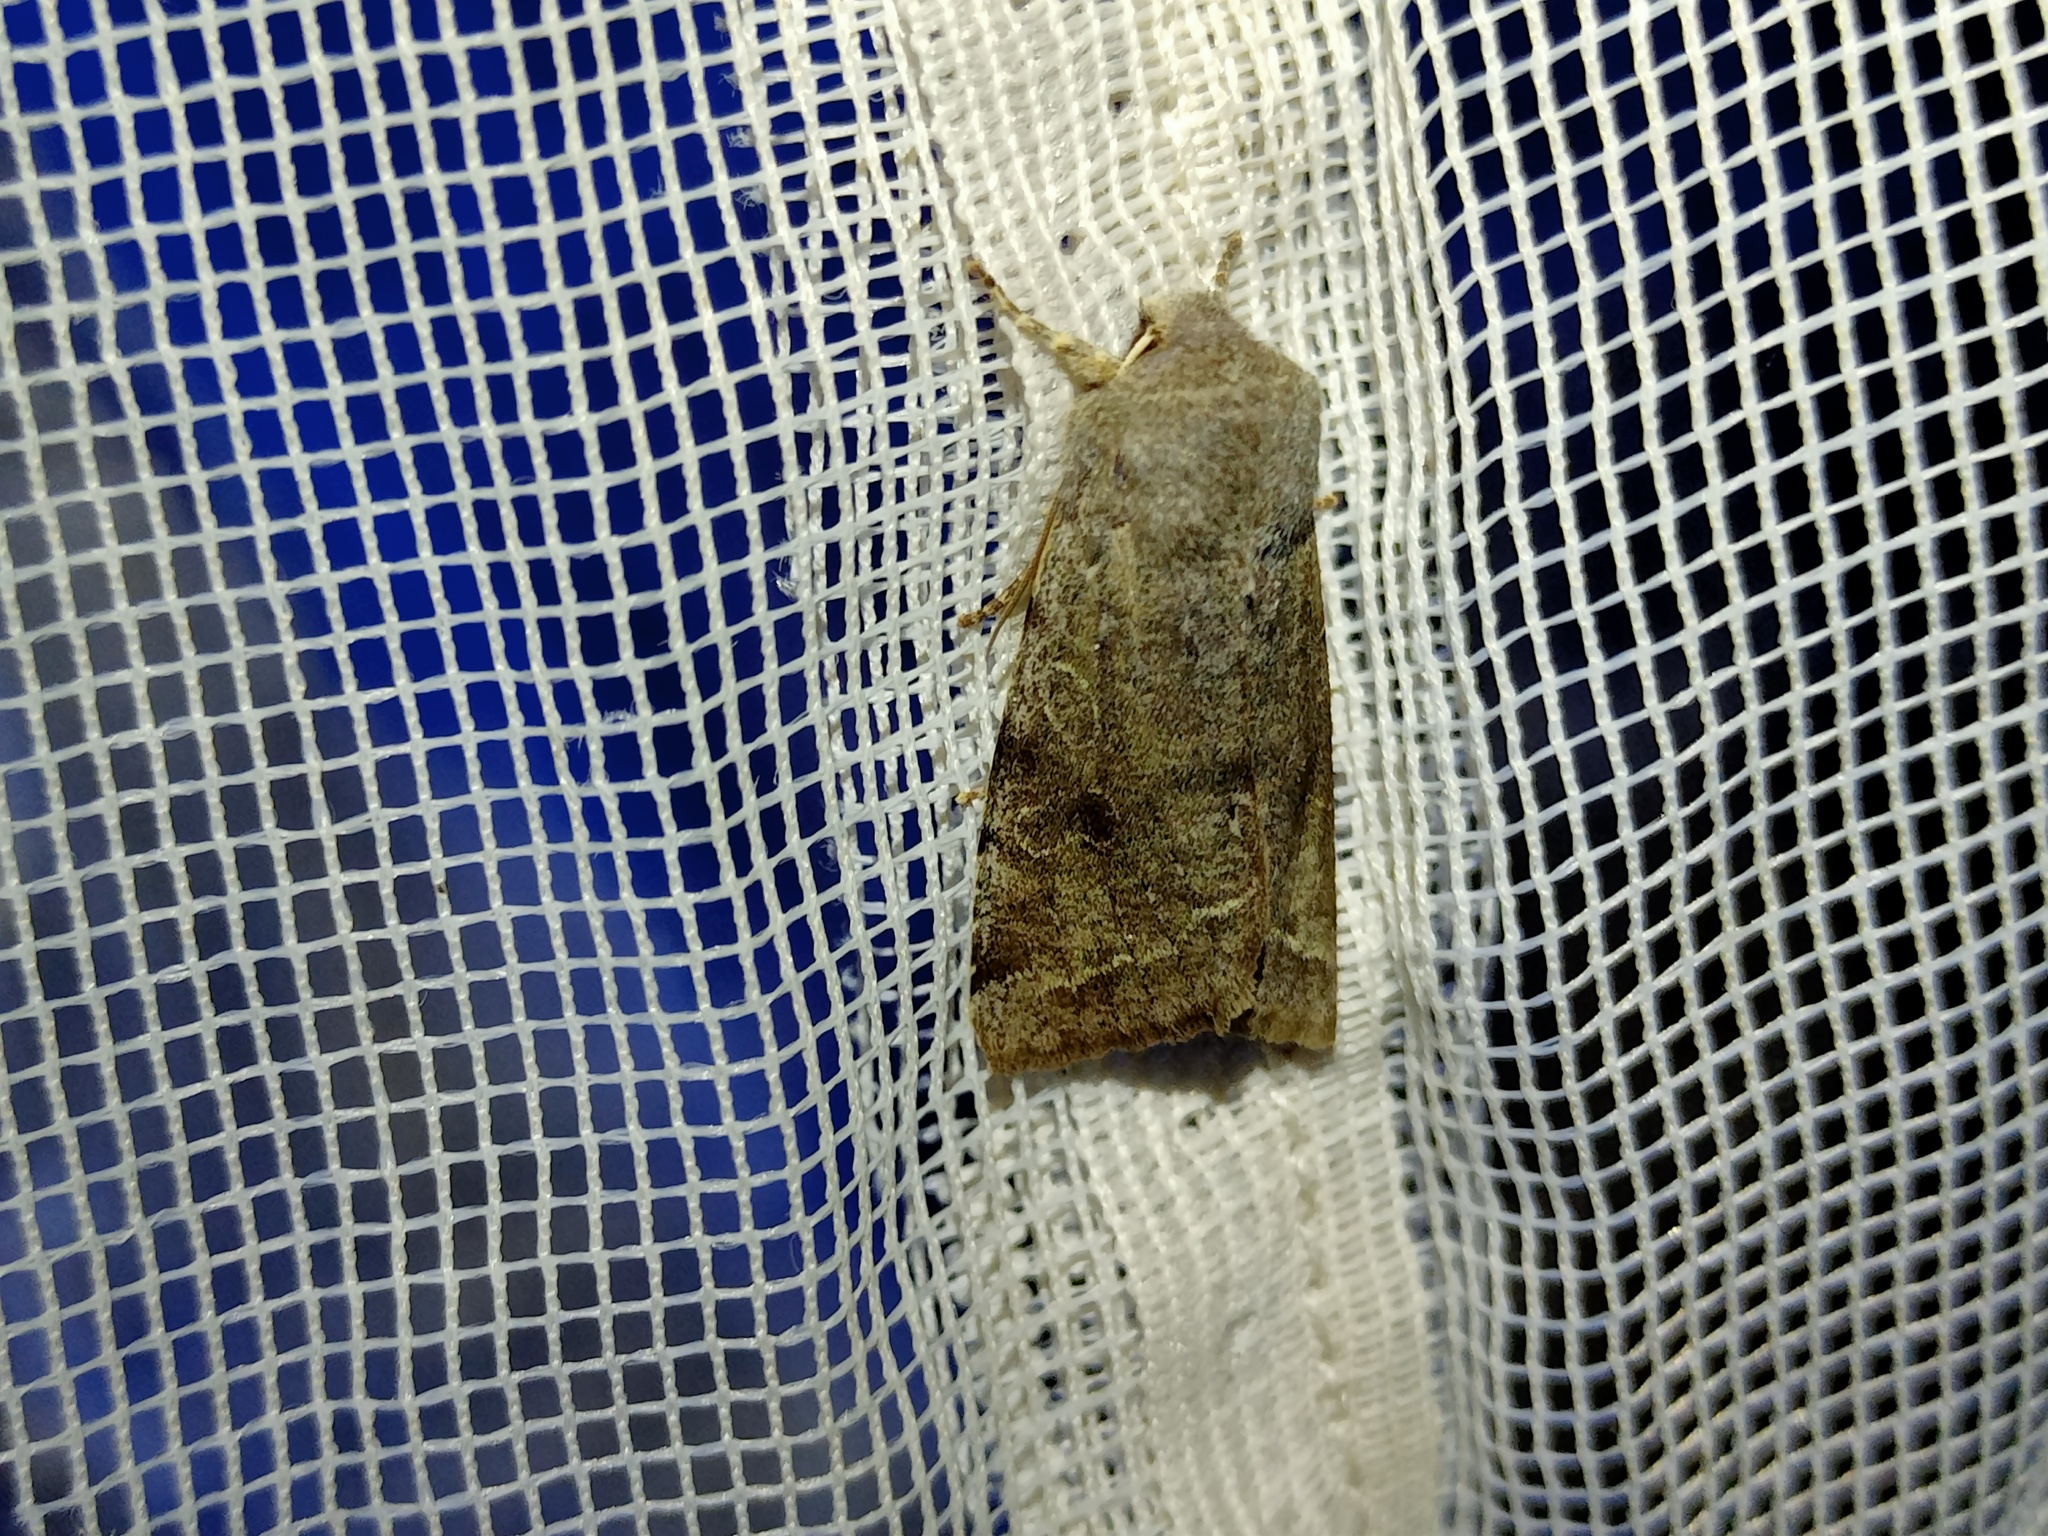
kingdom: Animalia
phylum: Arthropoda
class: Insecta
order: Lepidoptera
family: Noctuidae
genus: Orthosia
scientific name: Orthosia incerta
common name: Clouded drab
